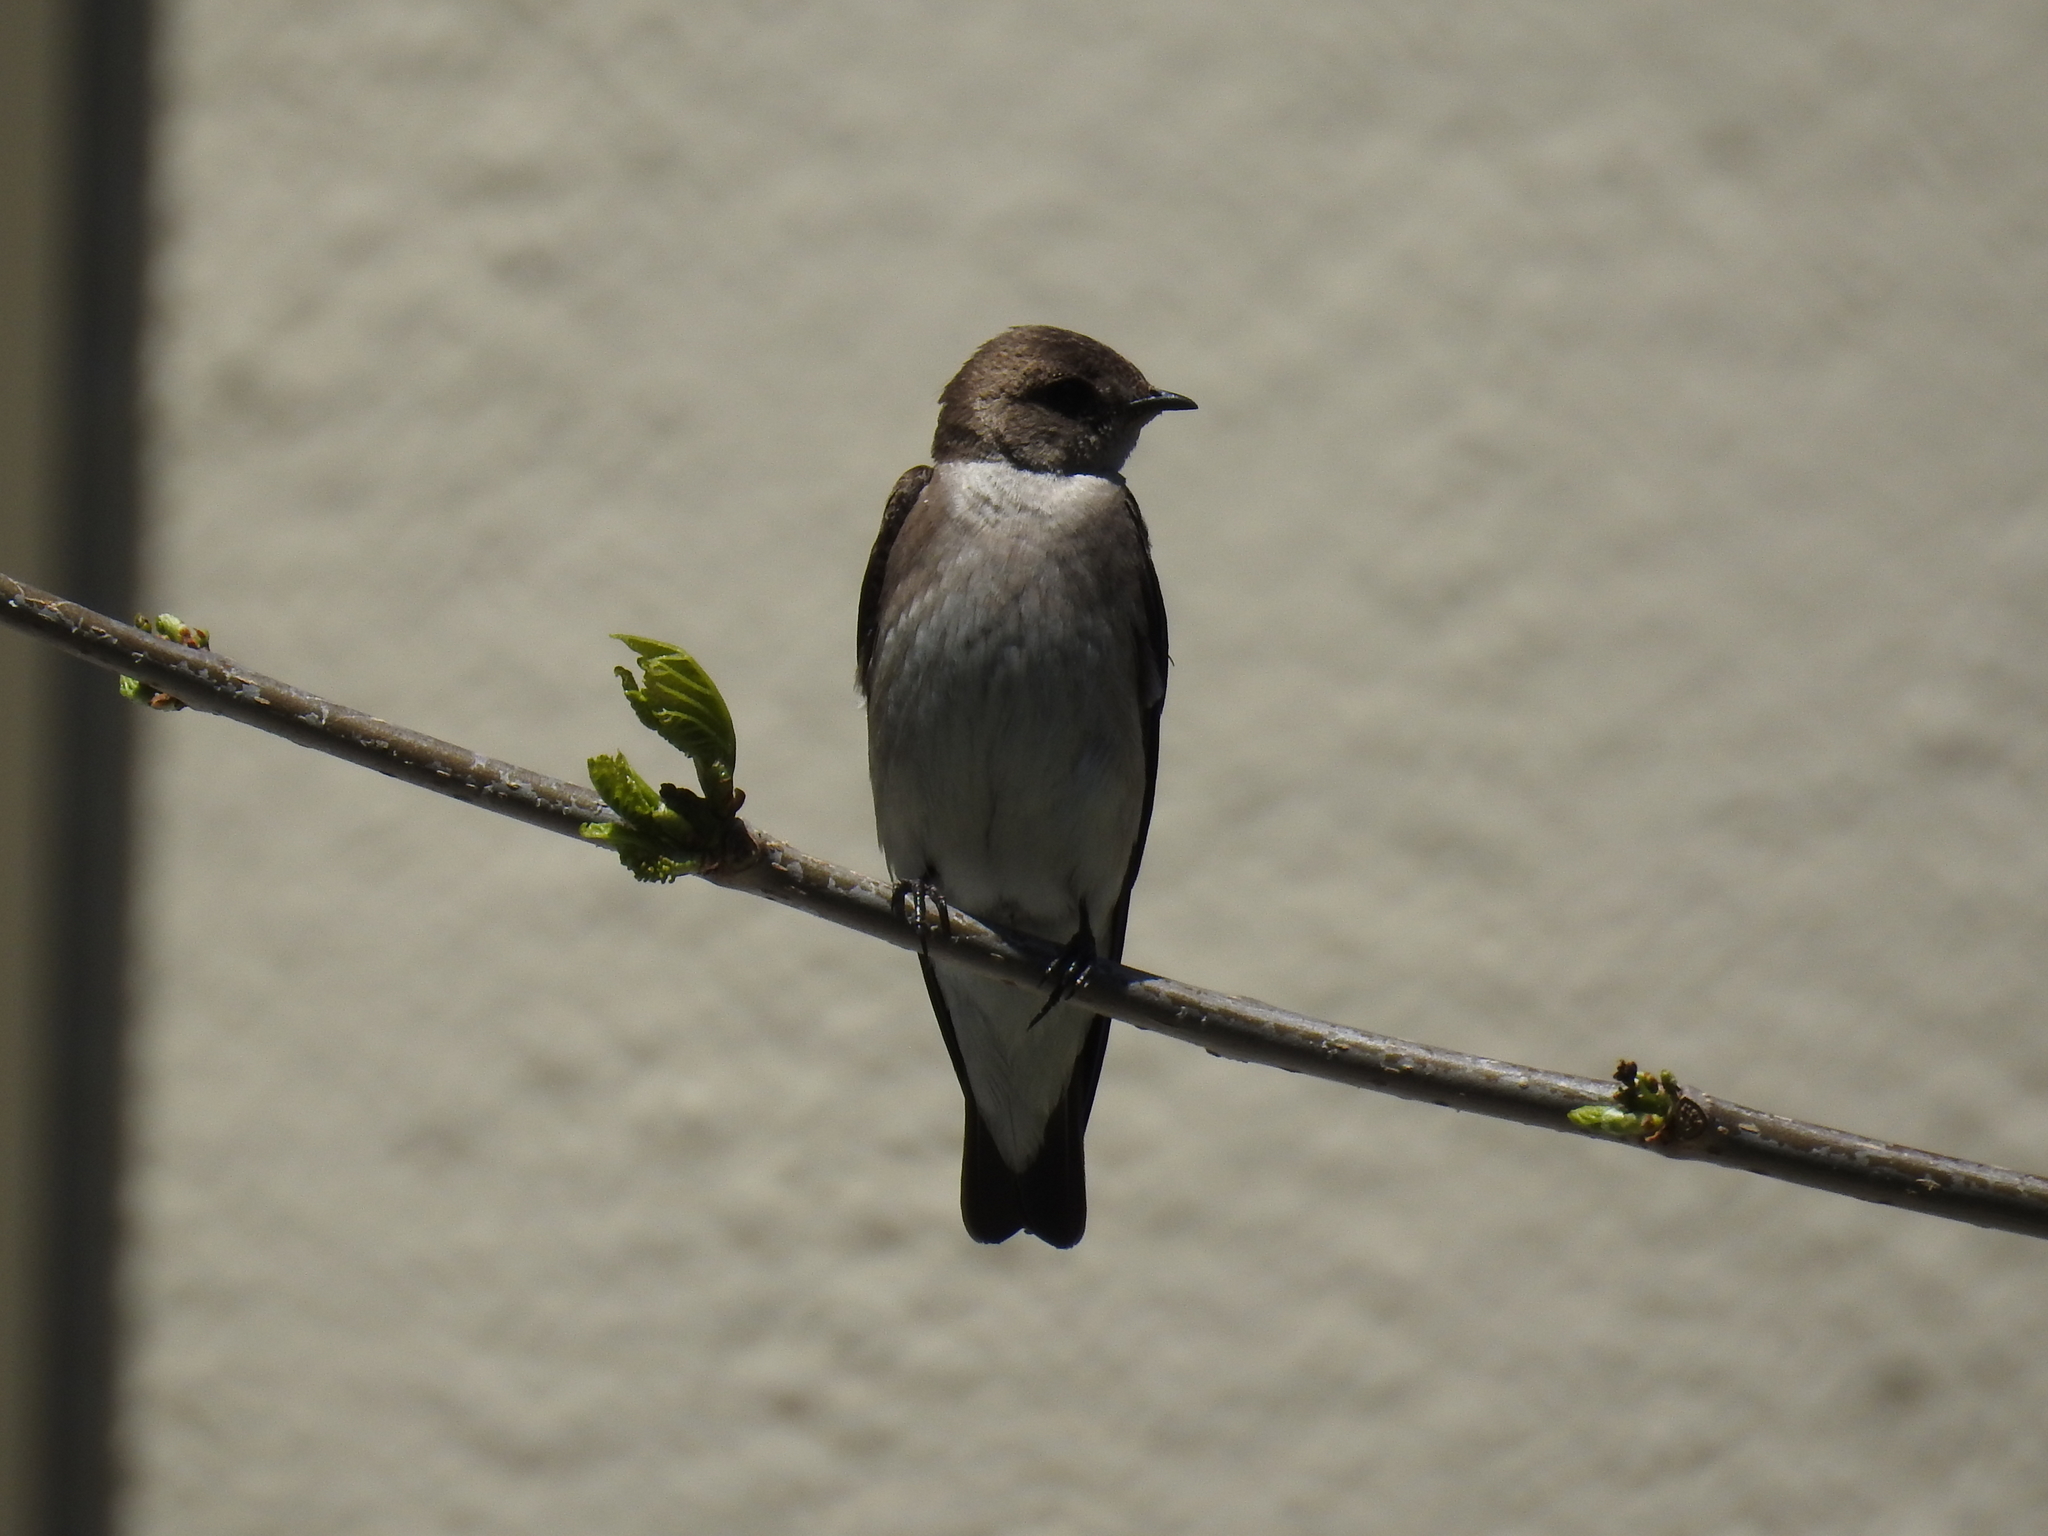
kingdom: Animalia
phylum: Chordata
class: Aves
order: Passeriformes
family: Hirundinidae
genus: Stelgidopteryx
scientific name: Stelgidopteryx serripennis
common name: Northern rough-winged swallow
